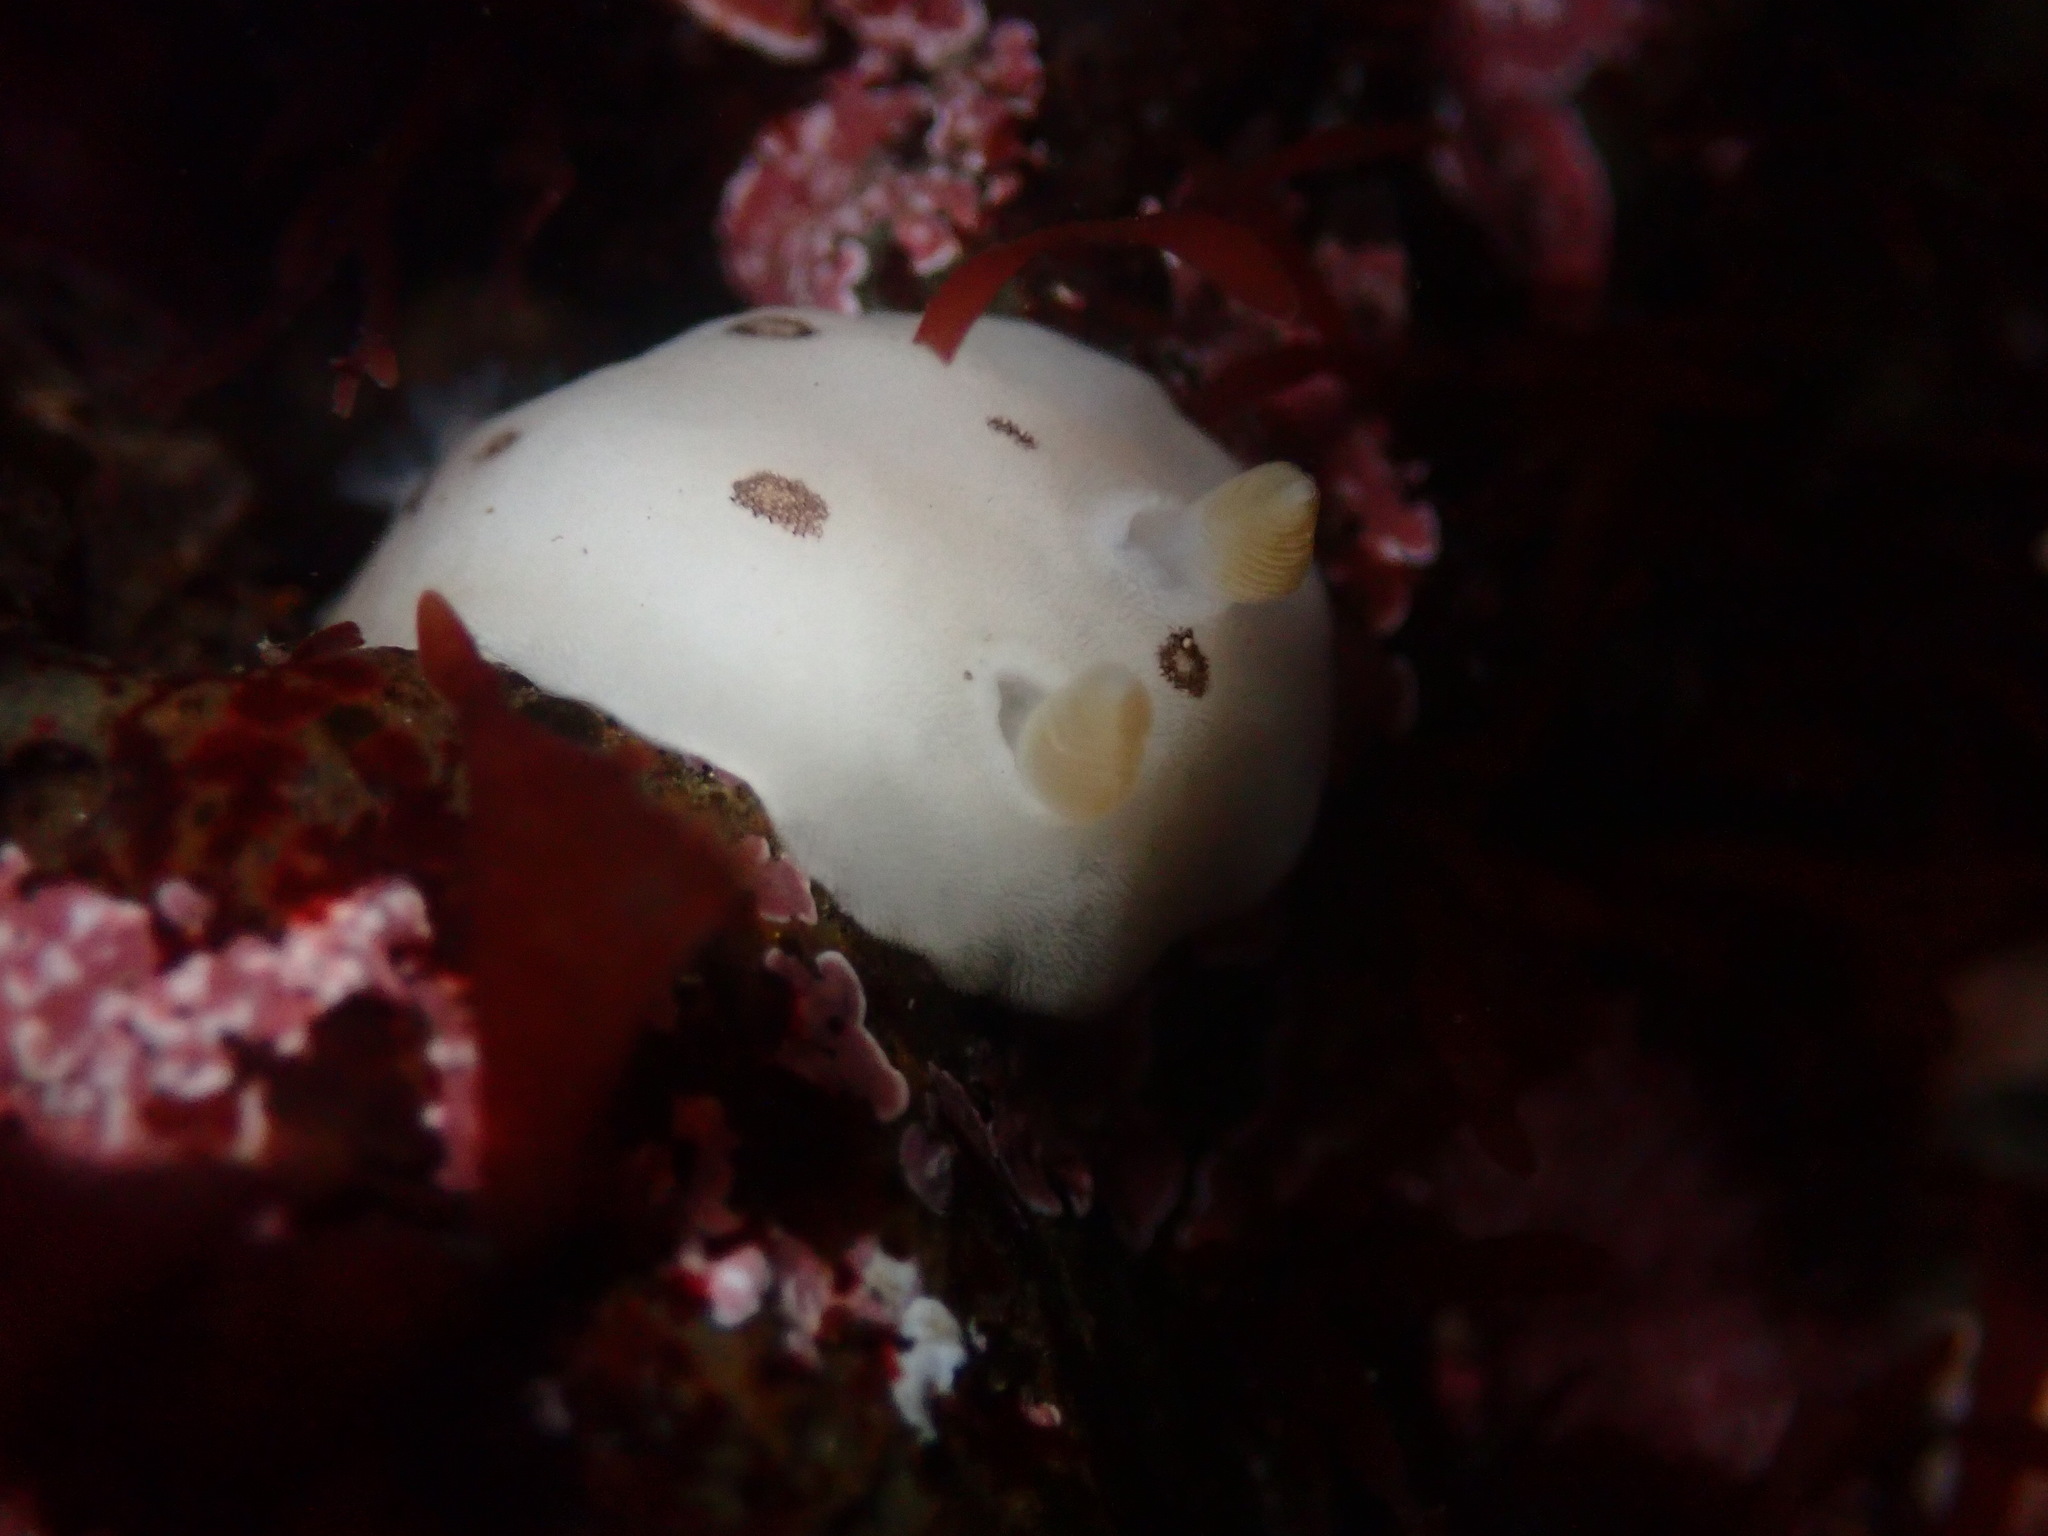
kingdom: Animalia
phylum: Mollusca
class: Gastropoda
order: Nudibranchia
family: Discodorididae
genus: Diaulula
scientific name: Diaulula sandiegensis
